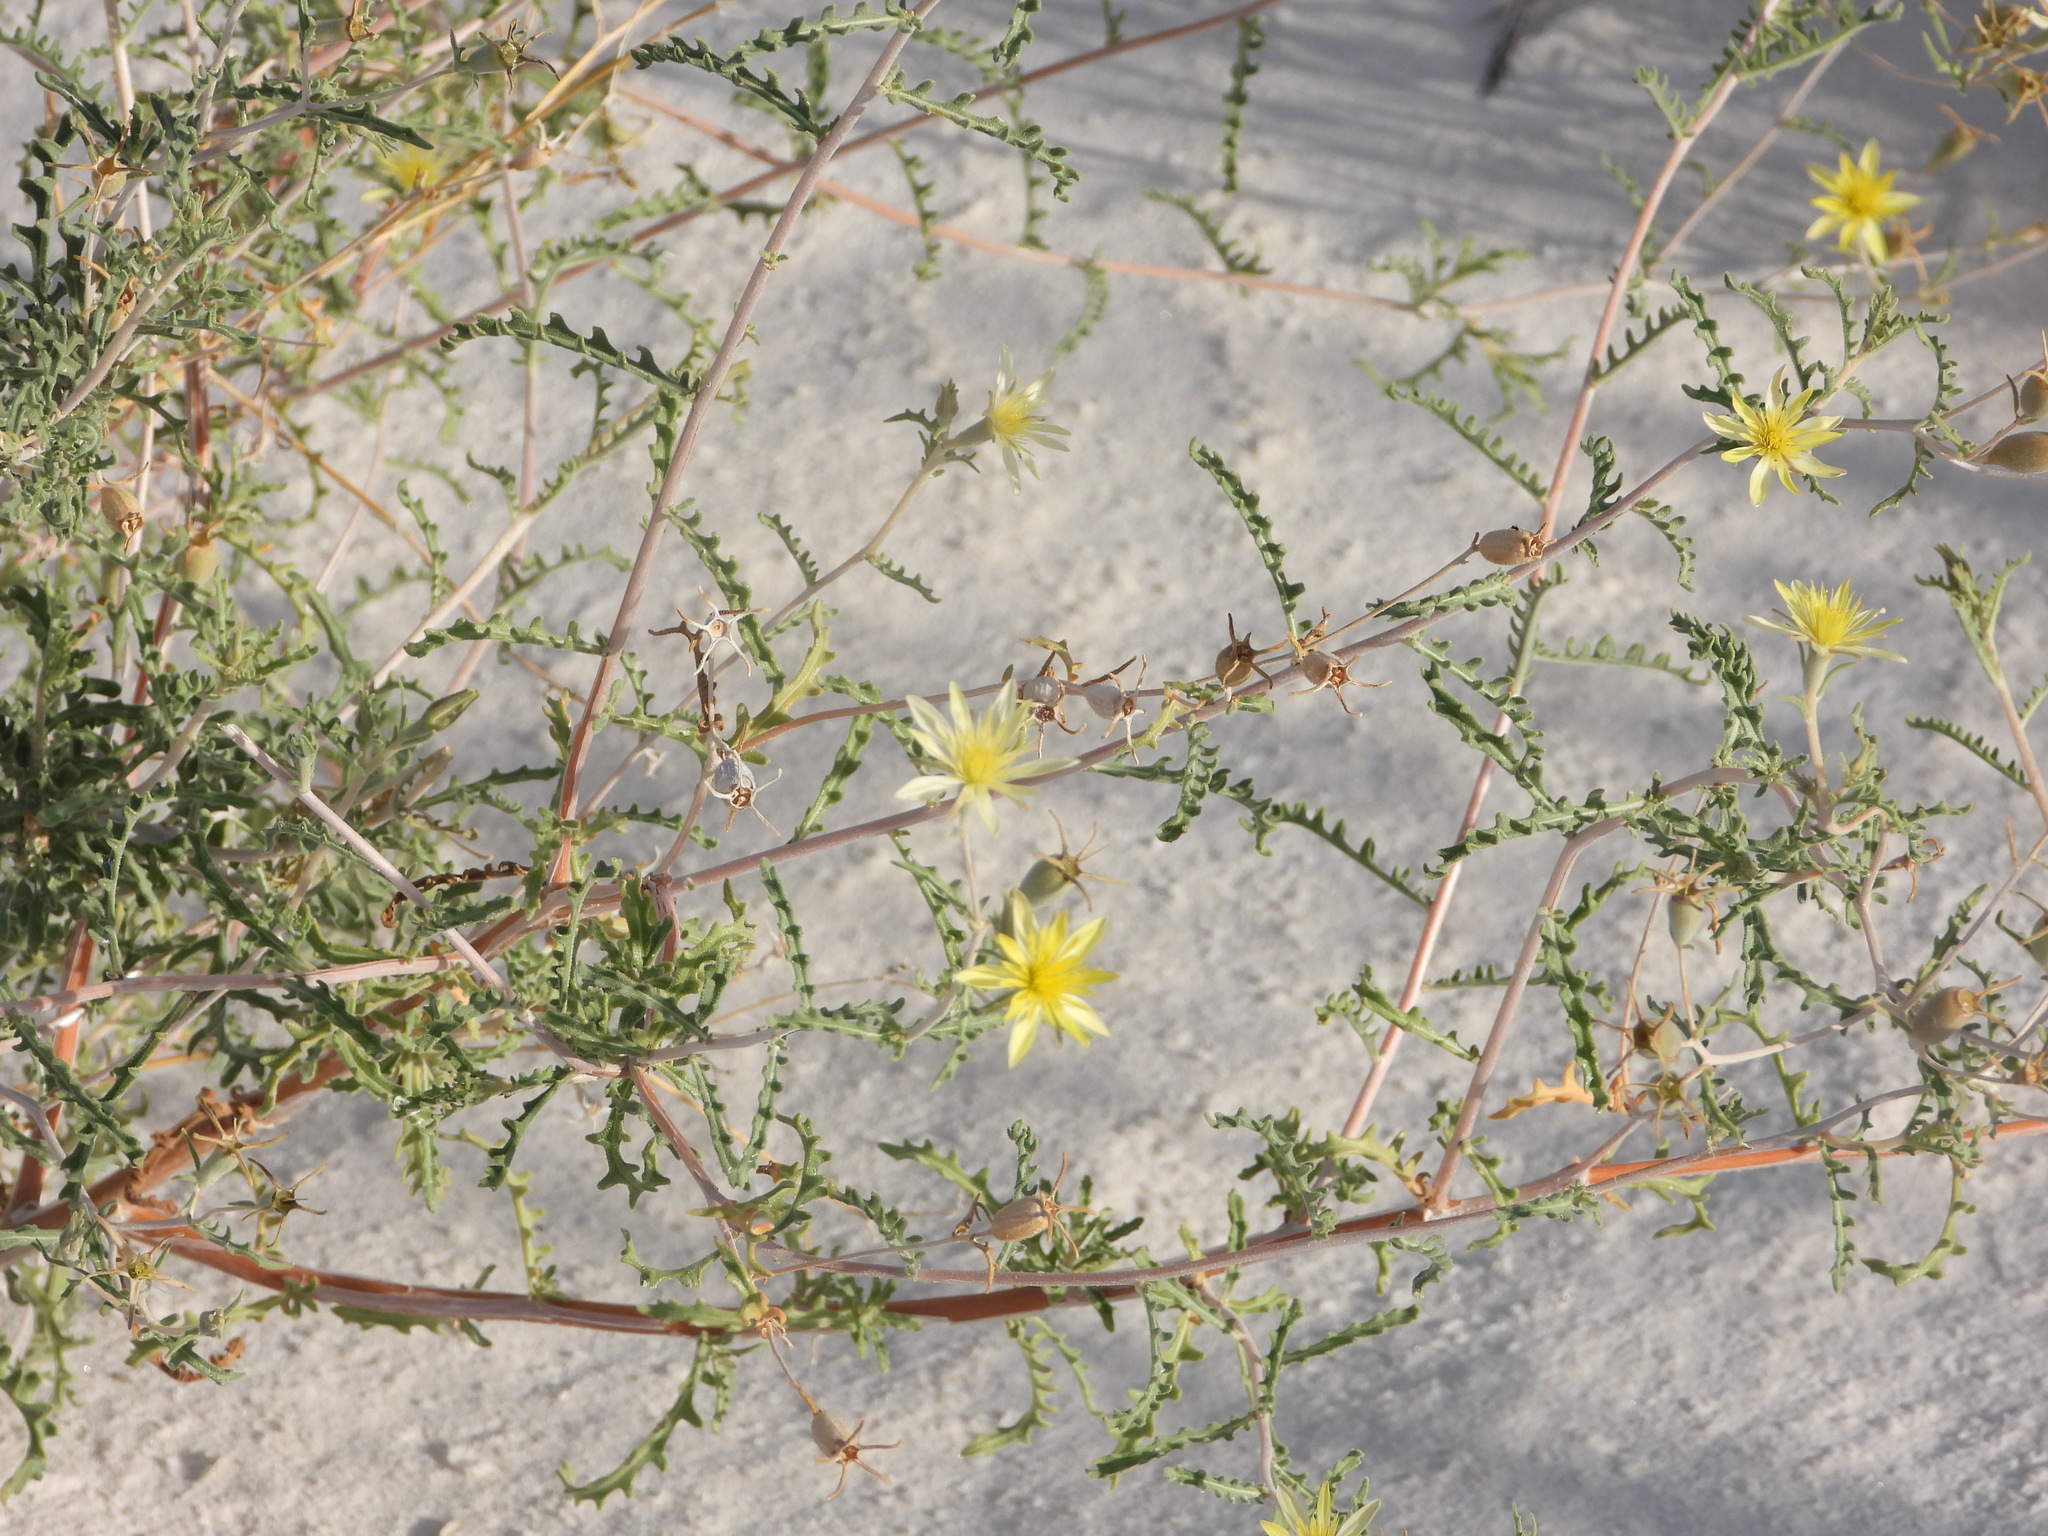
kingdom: Plantae
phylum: Tracheophyta
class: Magnoliopsida
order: Cornales
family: Loasaceae
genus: Mentzelia
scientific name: Mentzelia procera
